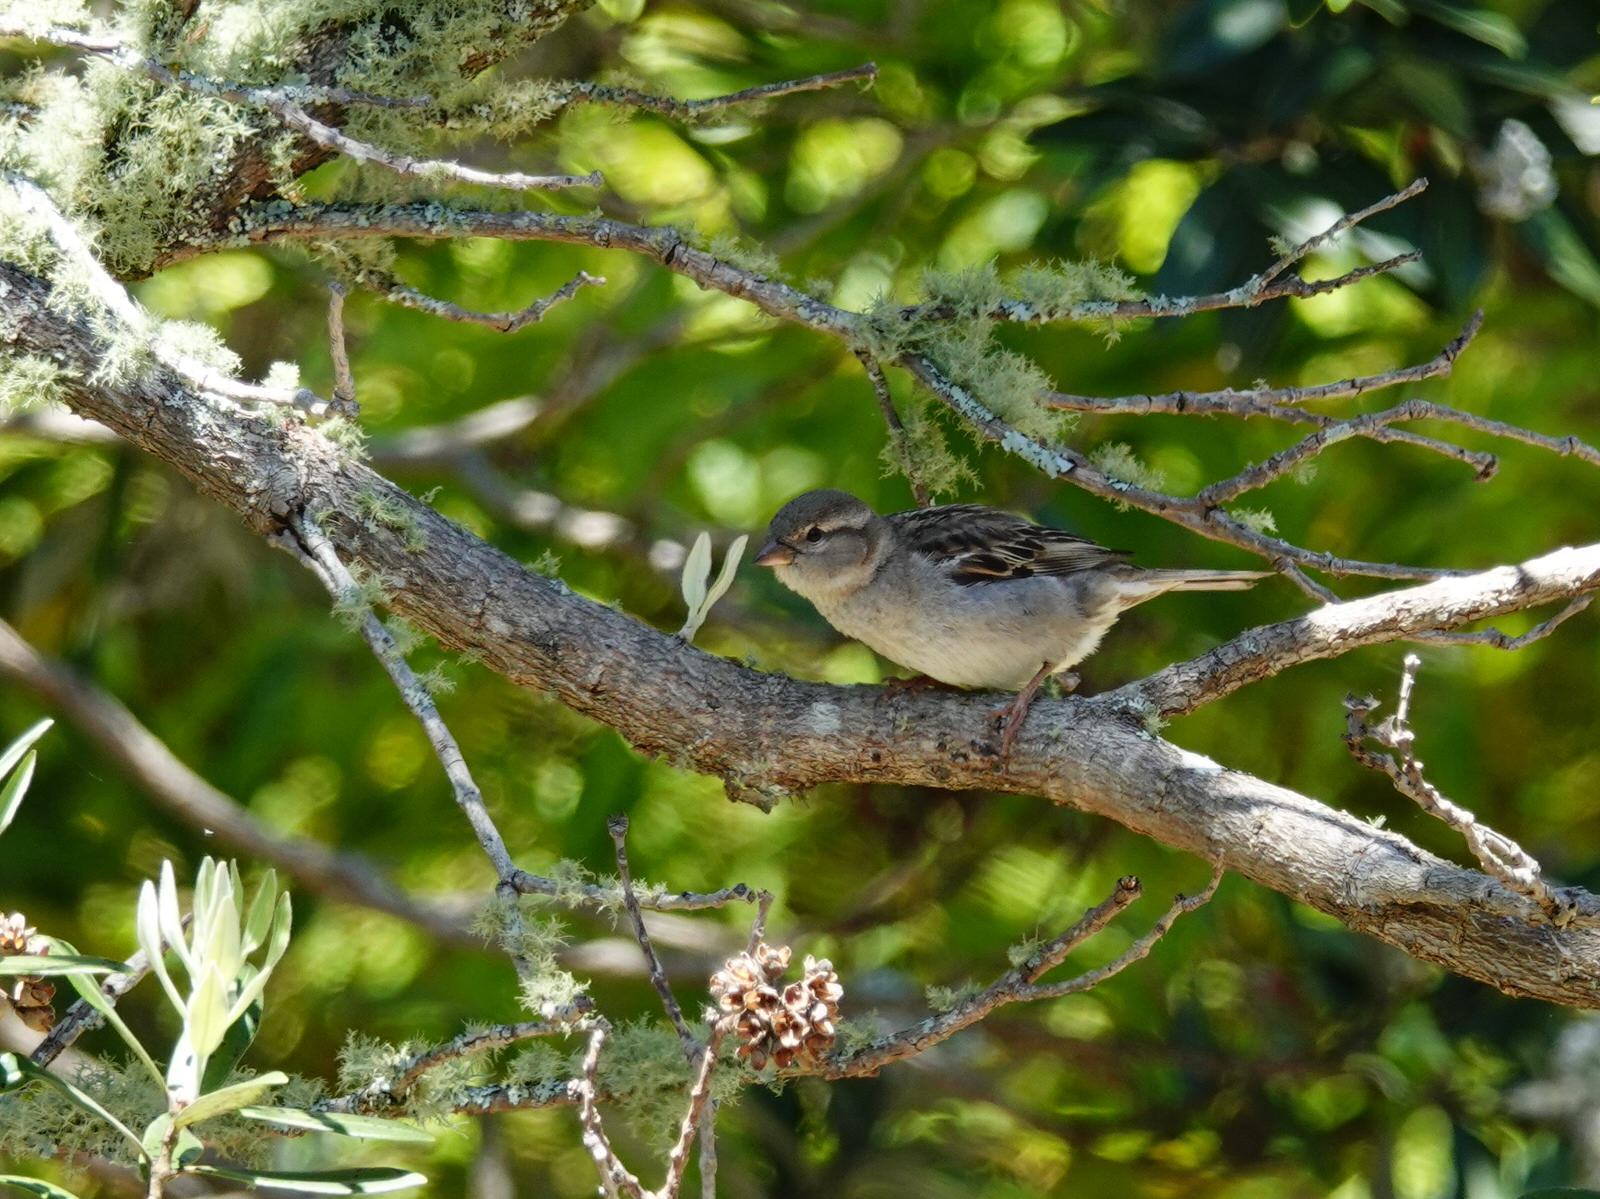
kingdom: Animalia
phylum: Chordata
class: Aves
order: Passeriformes
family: Passeridae
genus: Passer
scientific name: Passer domesticus
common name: House sparrow
